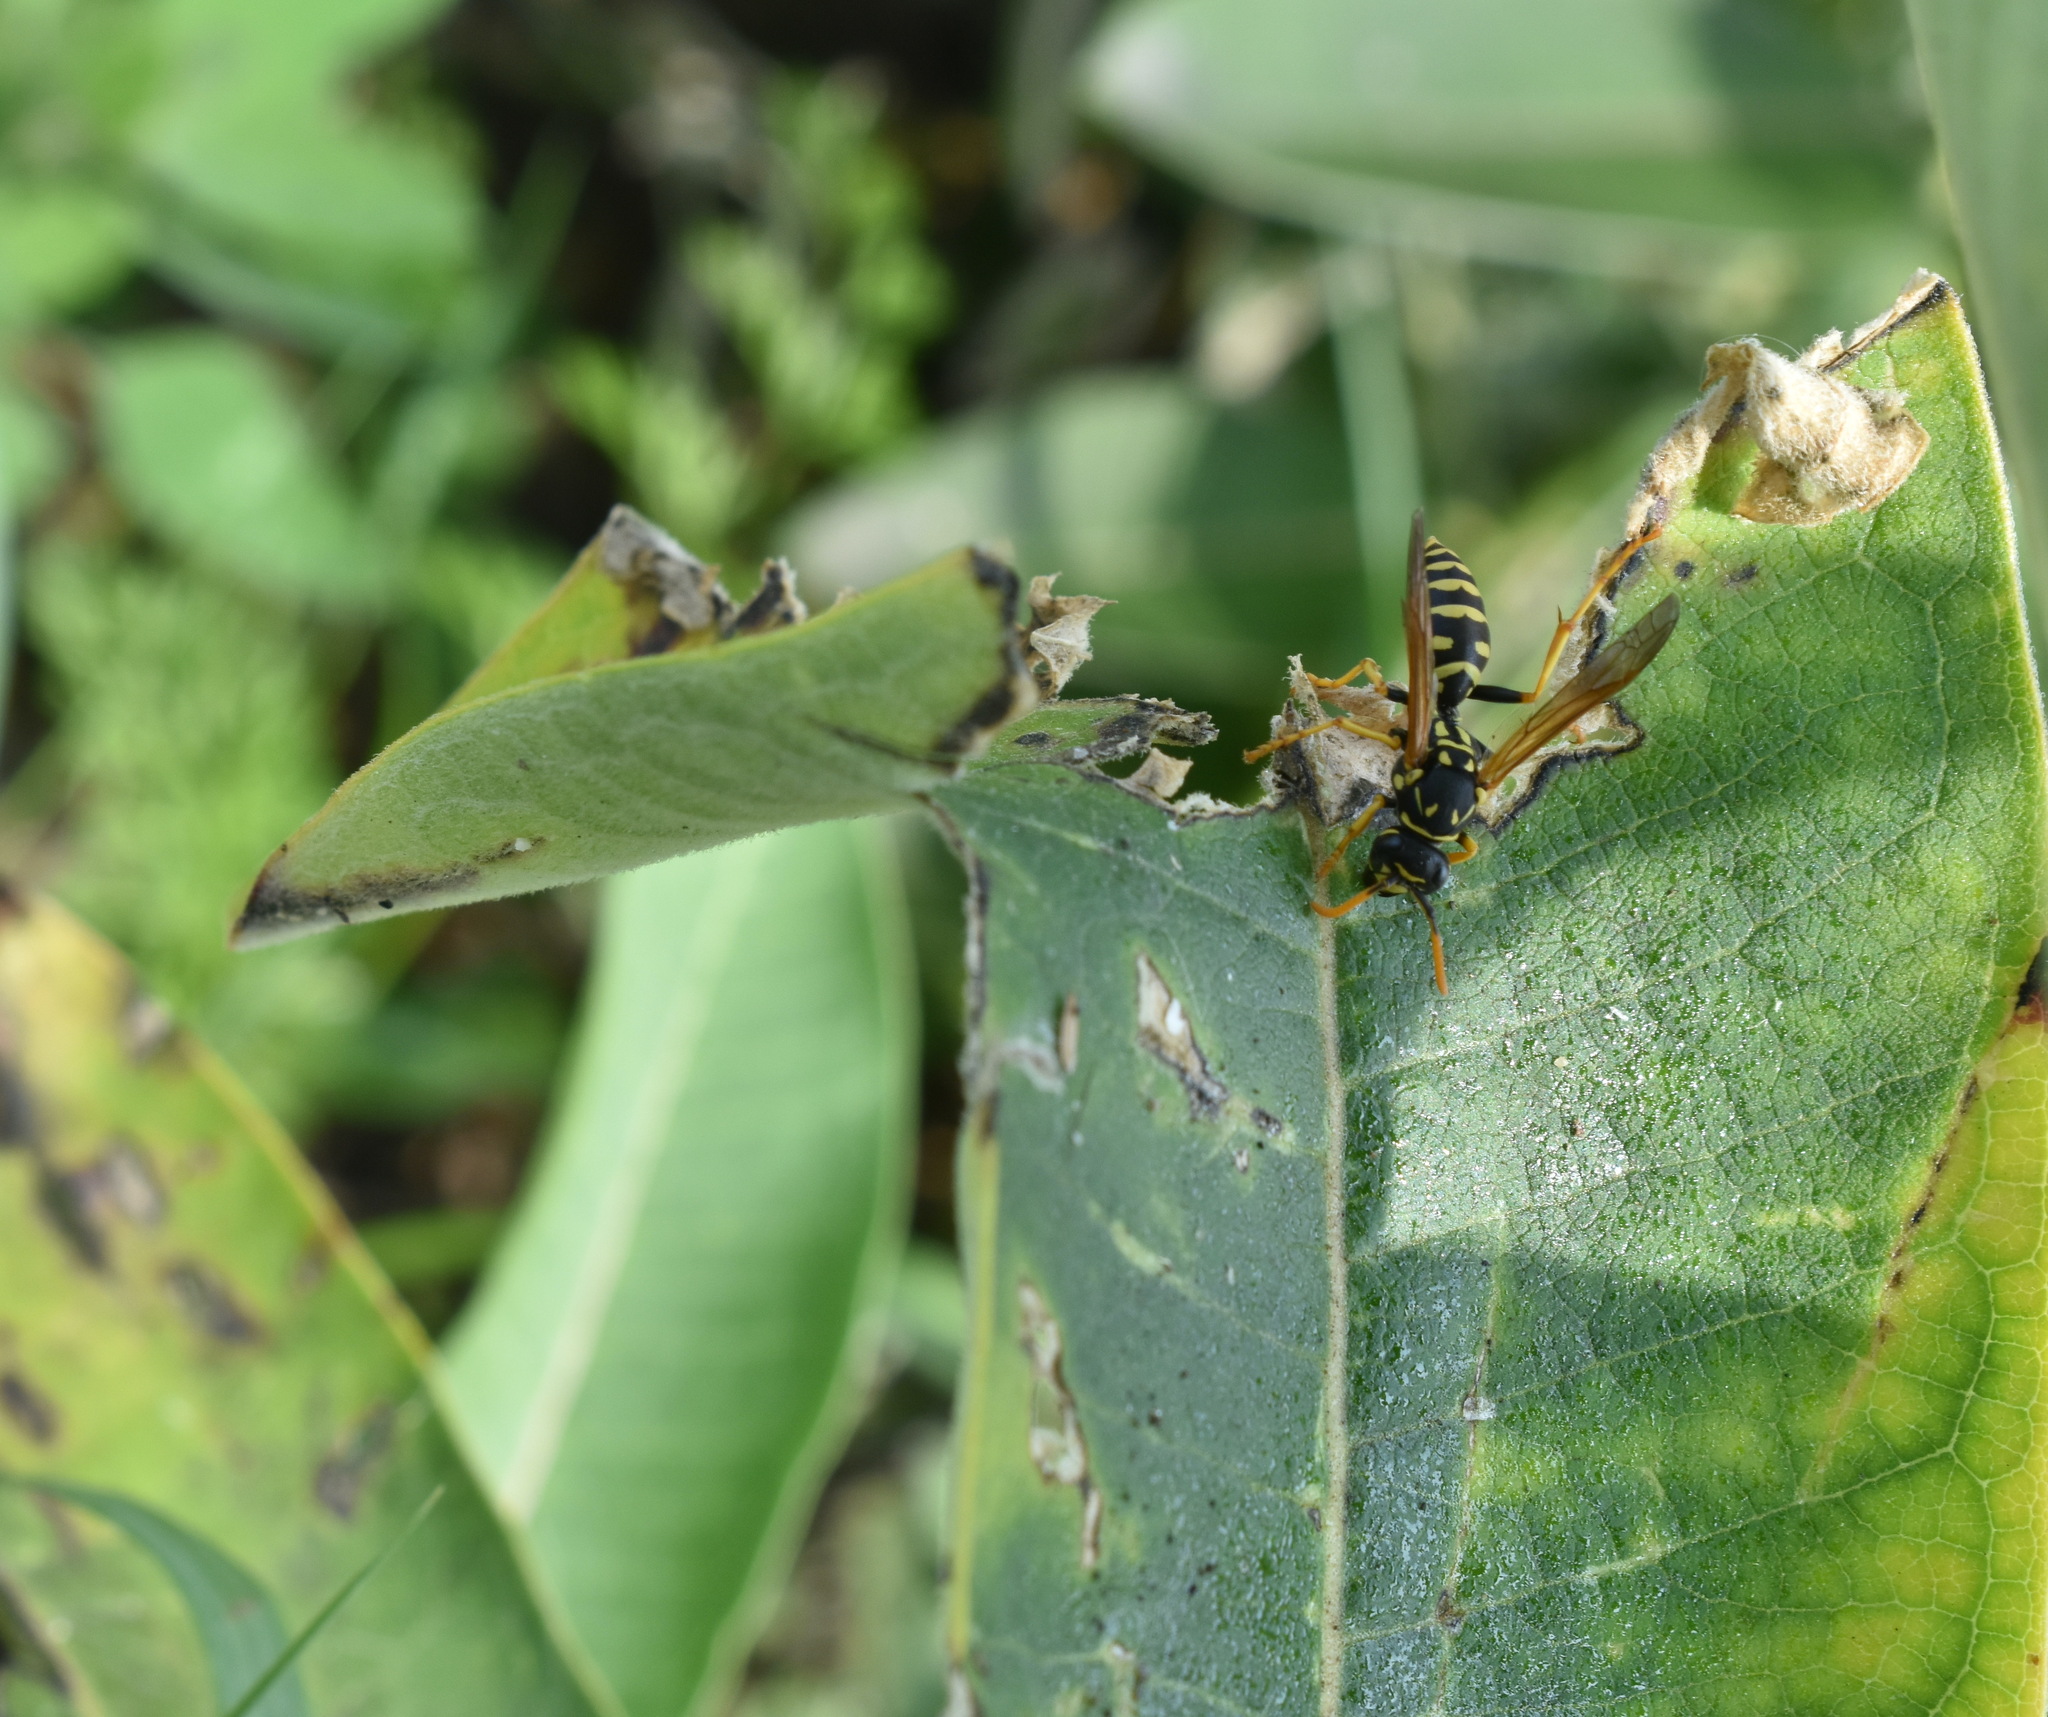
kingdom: Animalia
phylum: Arthropoda
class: Insecta
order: Hymenoptera
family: Eumenidae
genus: Polistes
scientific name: Polistes dominula
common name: Paper wasp
